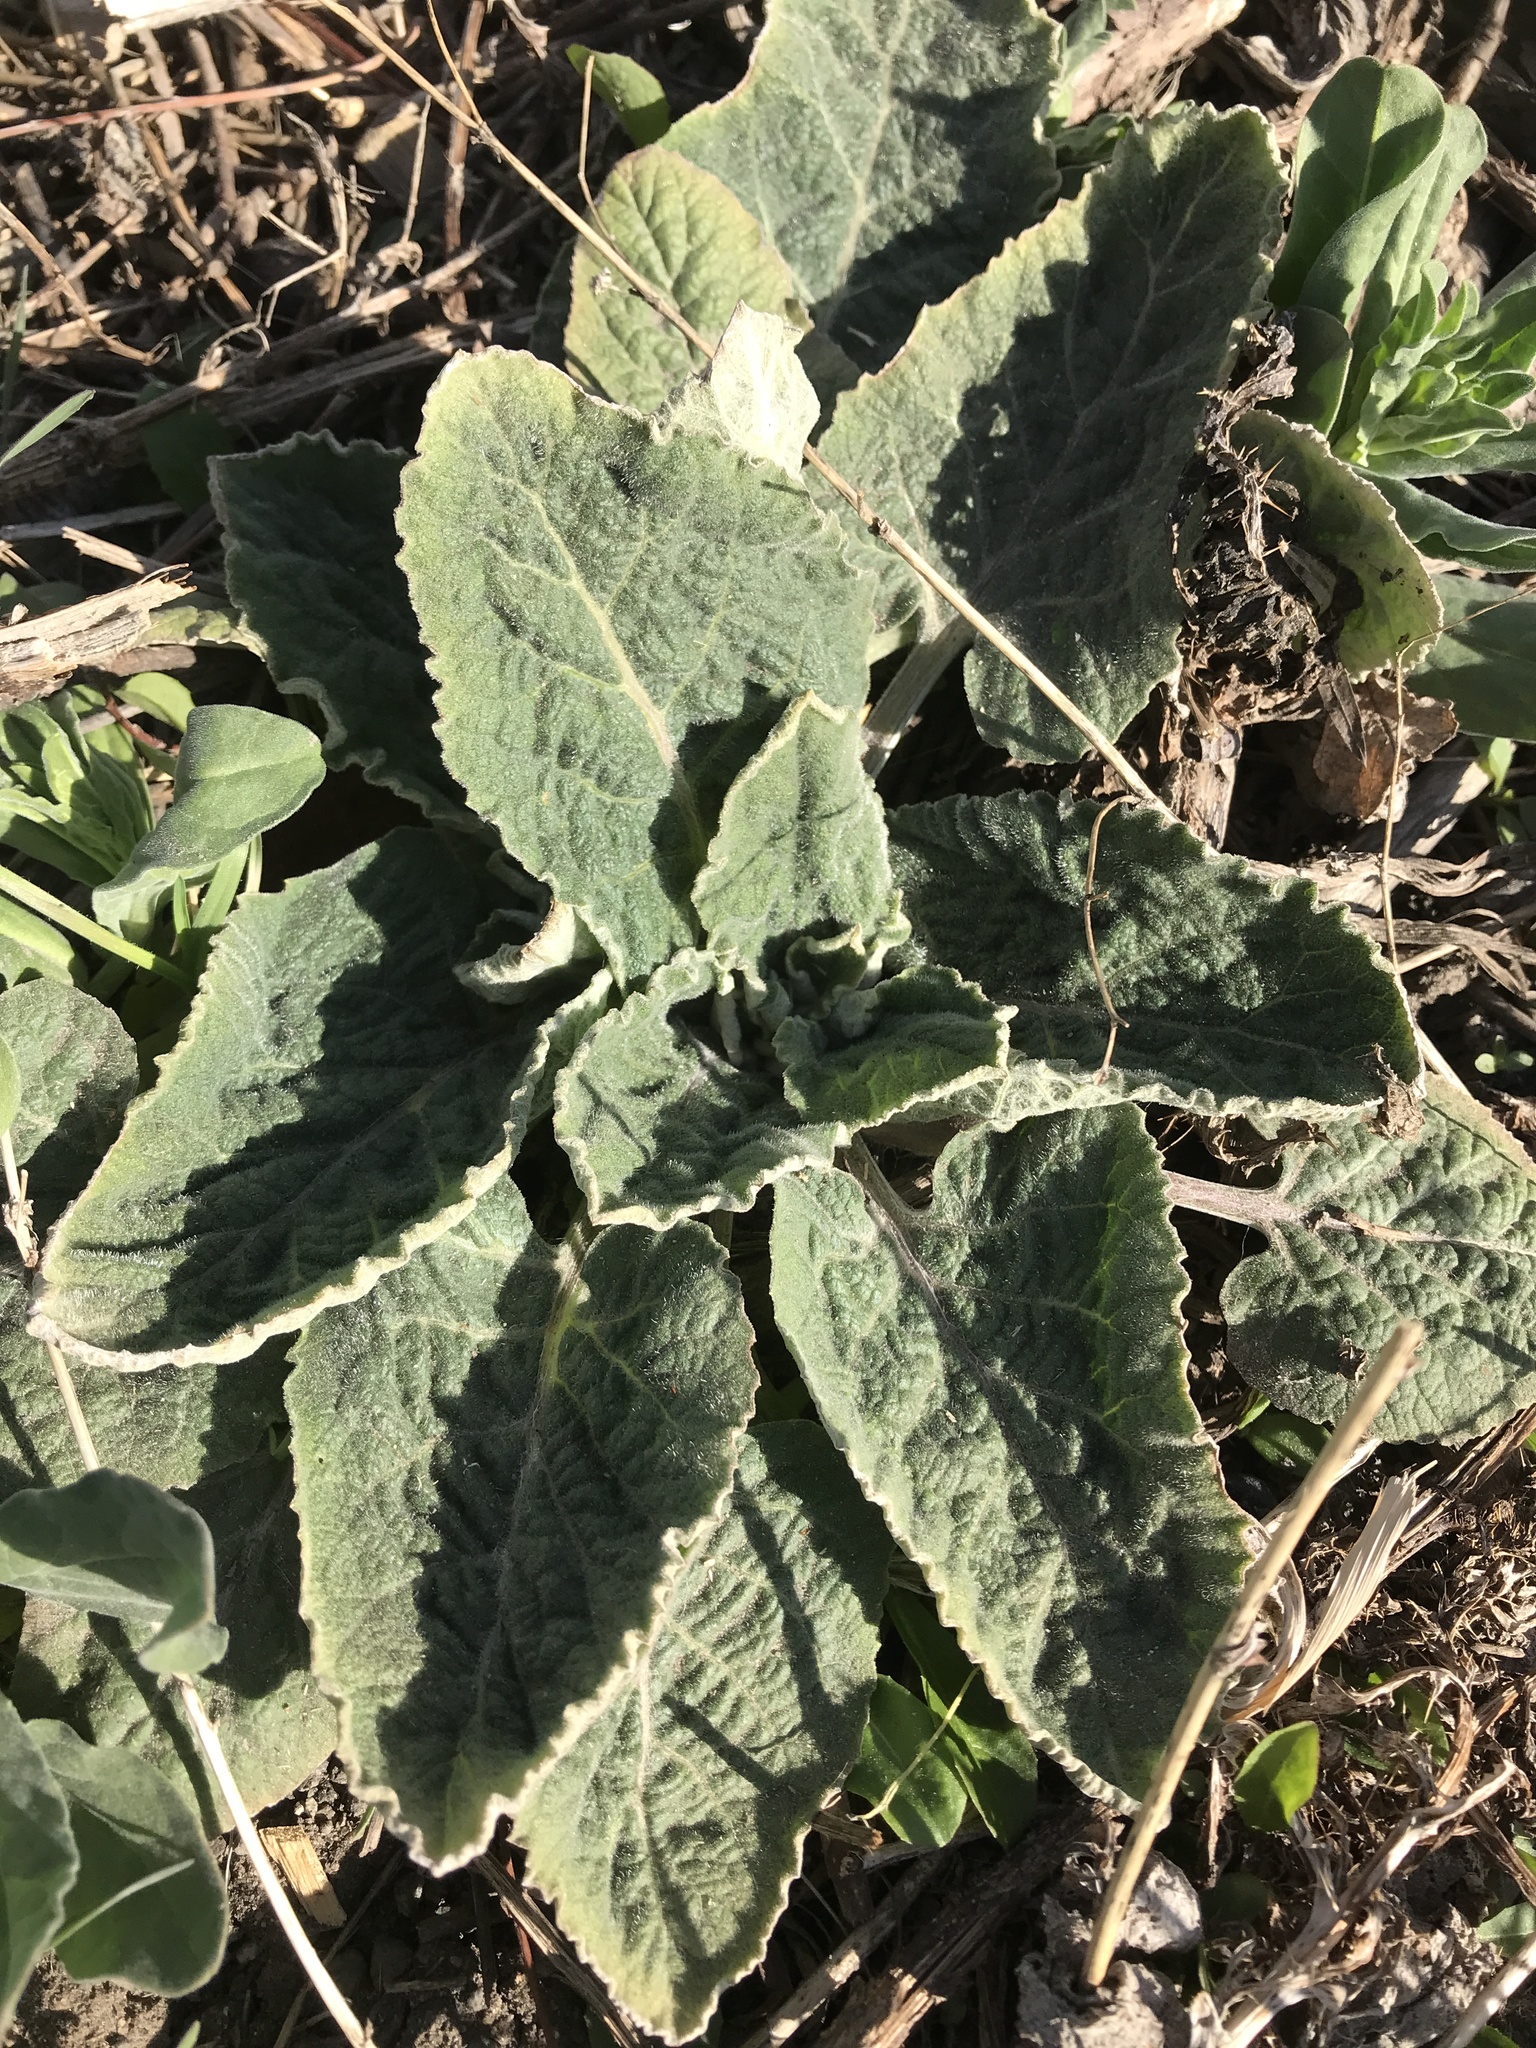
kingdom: Plantae
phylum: Tracheophyta
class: Magnoliopsida
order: Lamiales
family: Scrophulariaceae
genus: Verbascum
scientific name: Verbascum thapsus
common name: Common mullein
